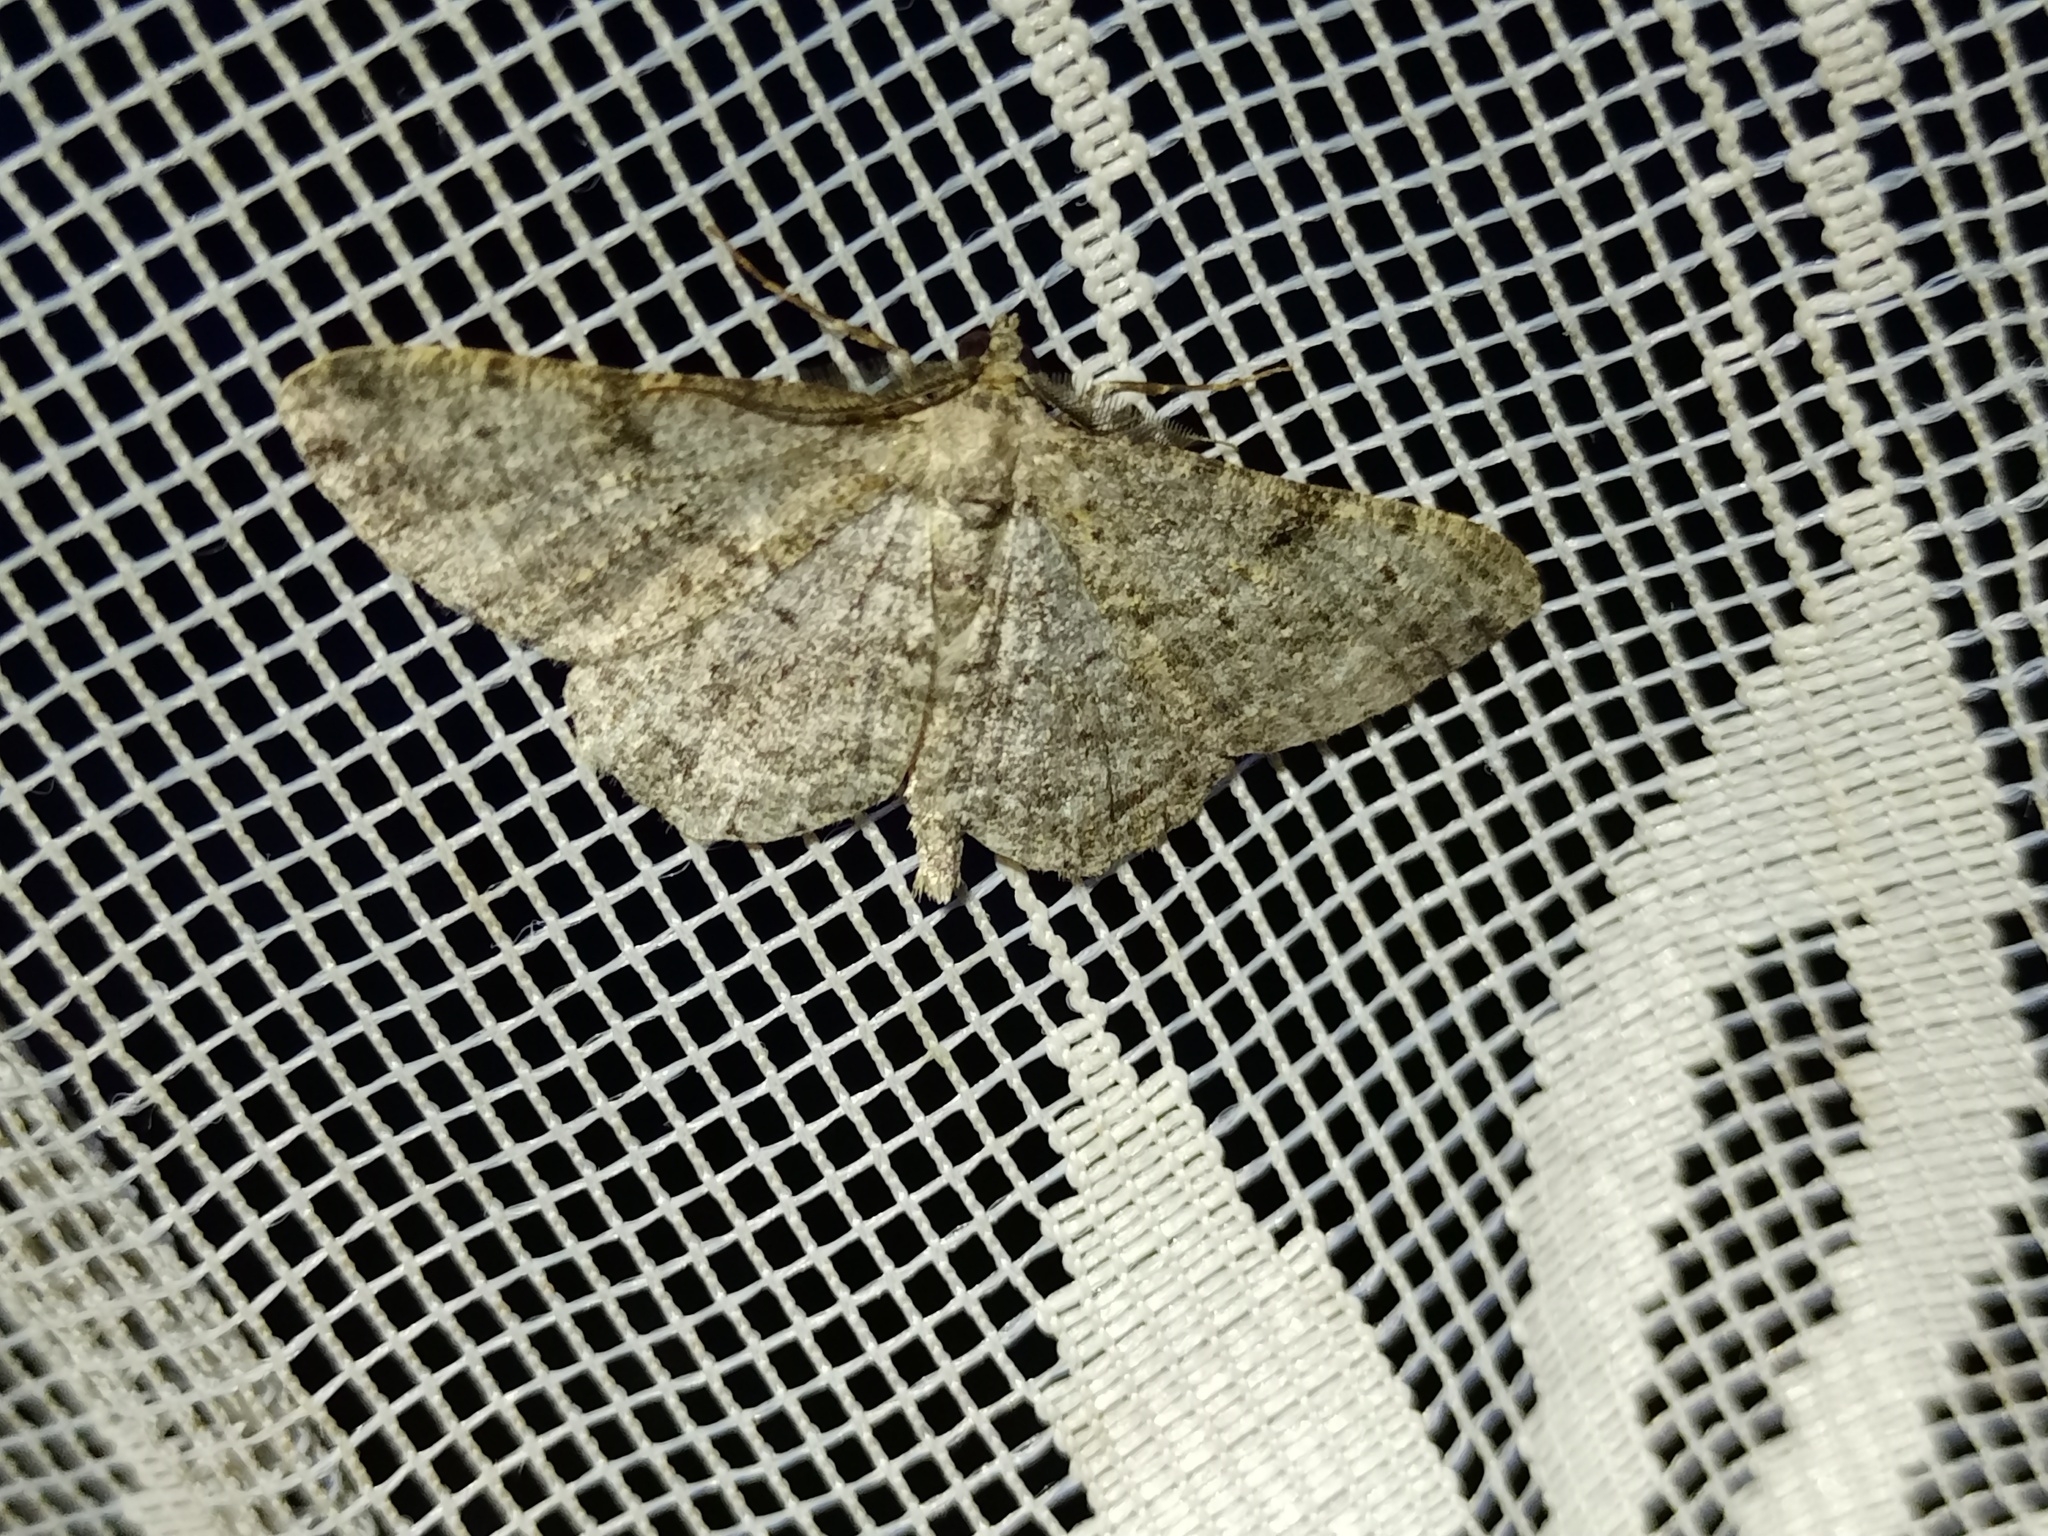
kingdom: Animalia
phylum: Arthropoda
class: Insecta
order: Lepidoptera
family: Geometridae
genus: Peribatodes
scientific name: Peribatodes rhomboidaria
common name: Willow beauty
